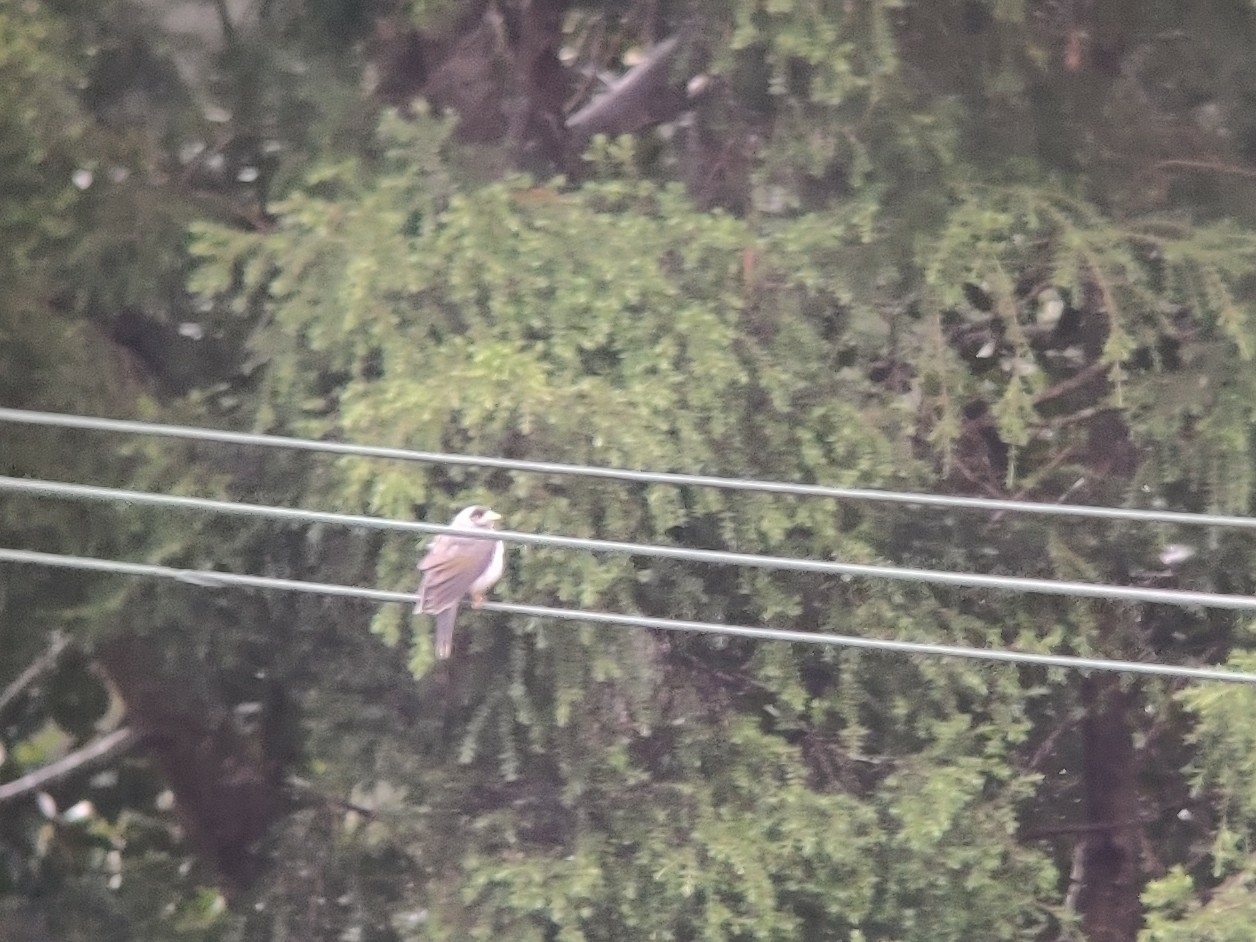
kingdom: Animalia
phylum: Chordata
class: Aves
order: Passeriformes
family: Meliphagidae
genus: Manorina
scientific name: Manorina melanocephala
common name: Noisy miner
